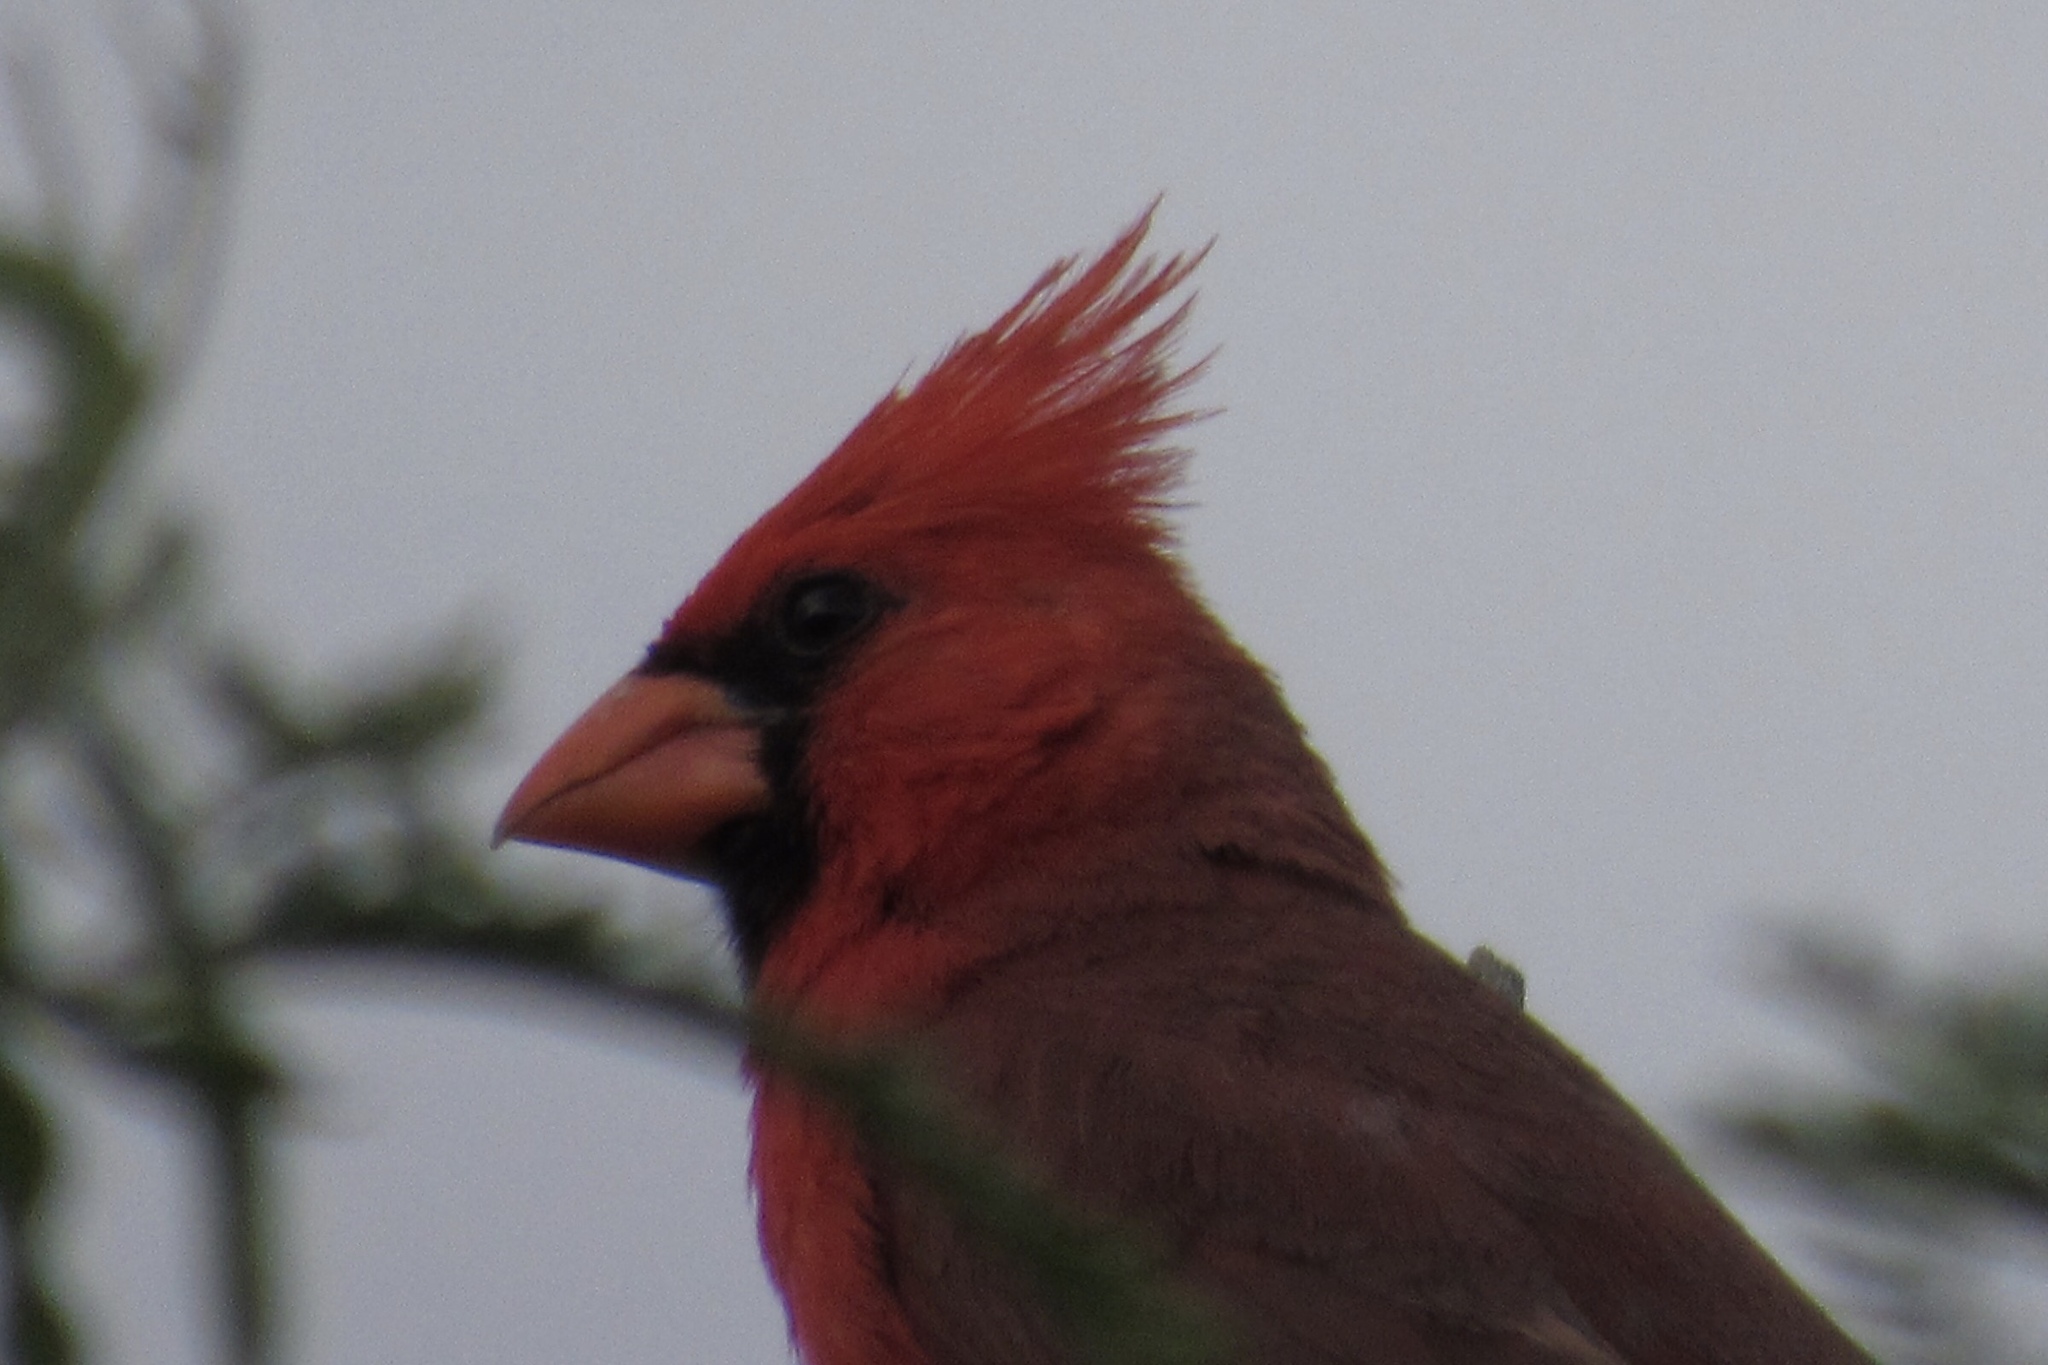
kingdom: Animalia
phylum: Chordata
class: Aves
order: Passeriformes
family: Cardinalidae
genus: Cardinalis
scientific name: Cardinalis cardinalis
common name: Northern cardinal
